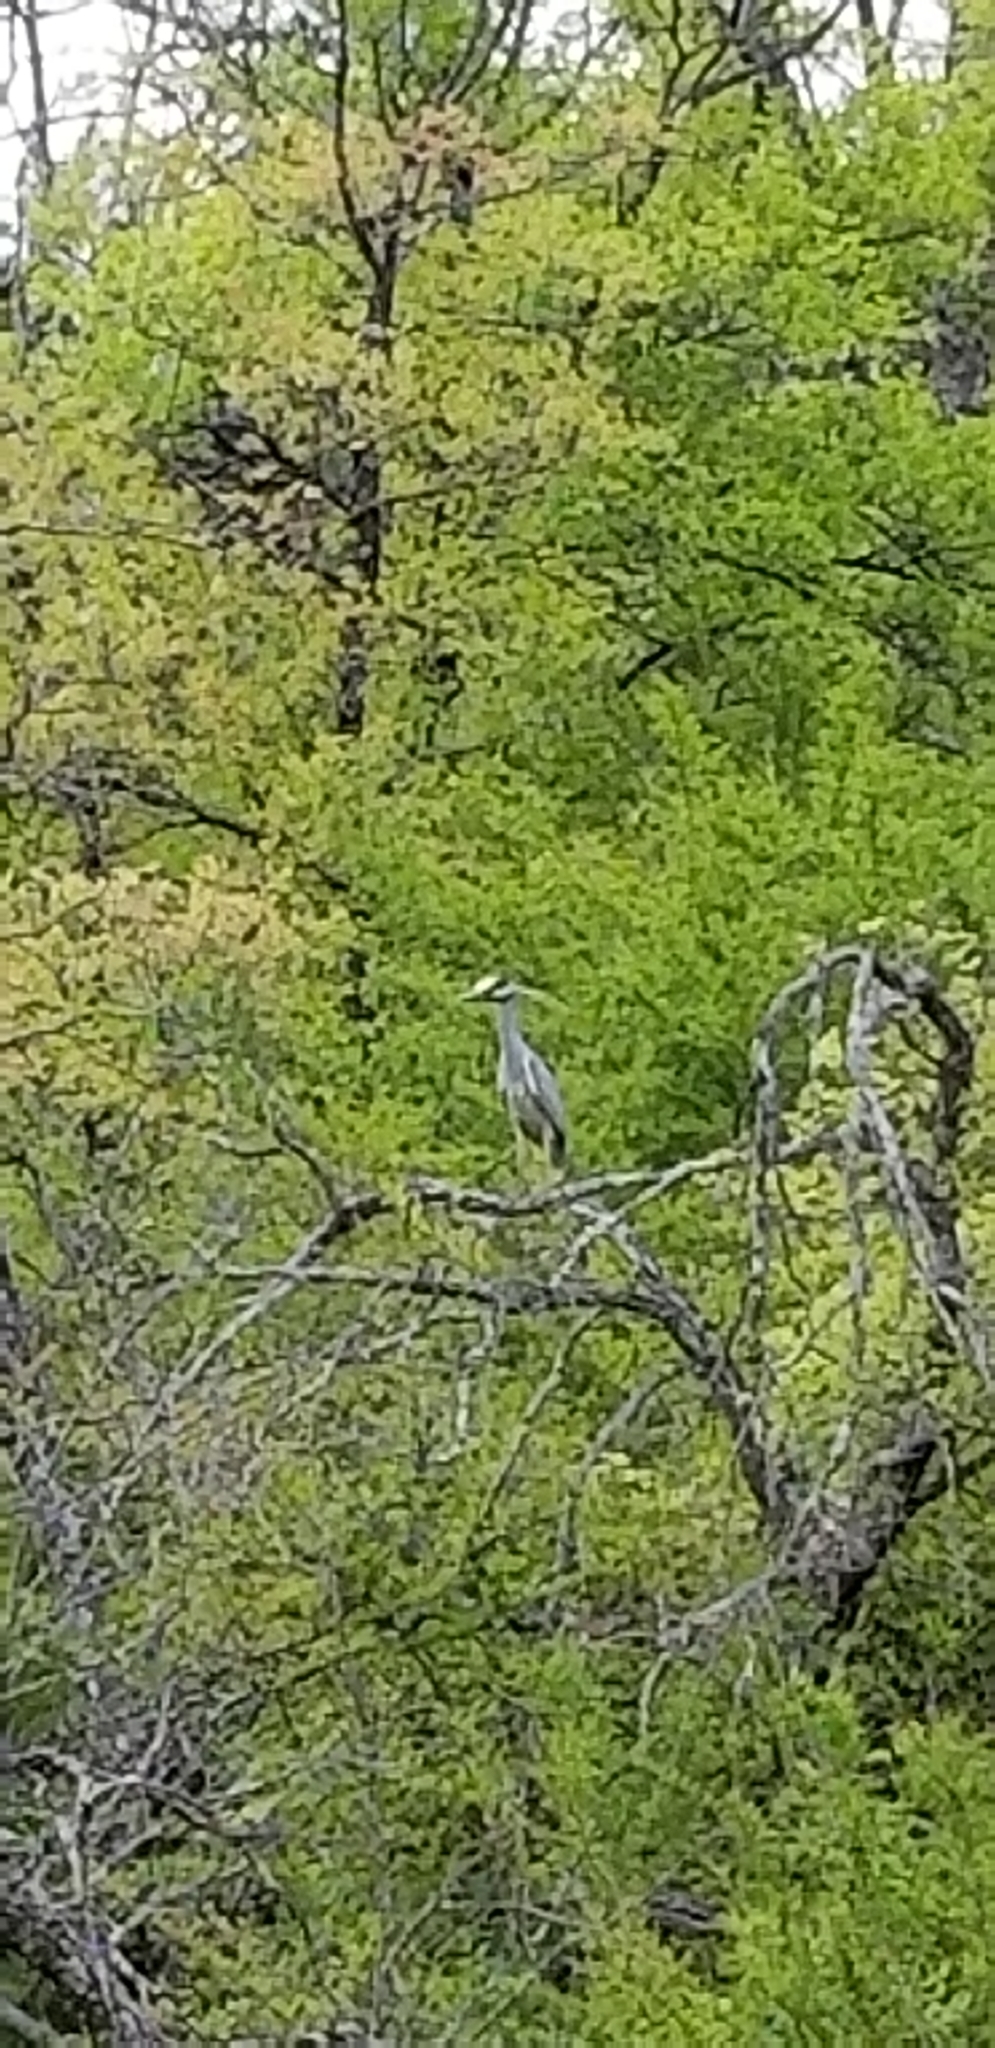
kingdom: Animalia
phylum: Chordata
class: Aves
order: Pelecaniformes
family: Ardeidae
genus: Nyctanassa
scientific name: Nyctanassa violacea
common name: Yellow-crowned night heron
